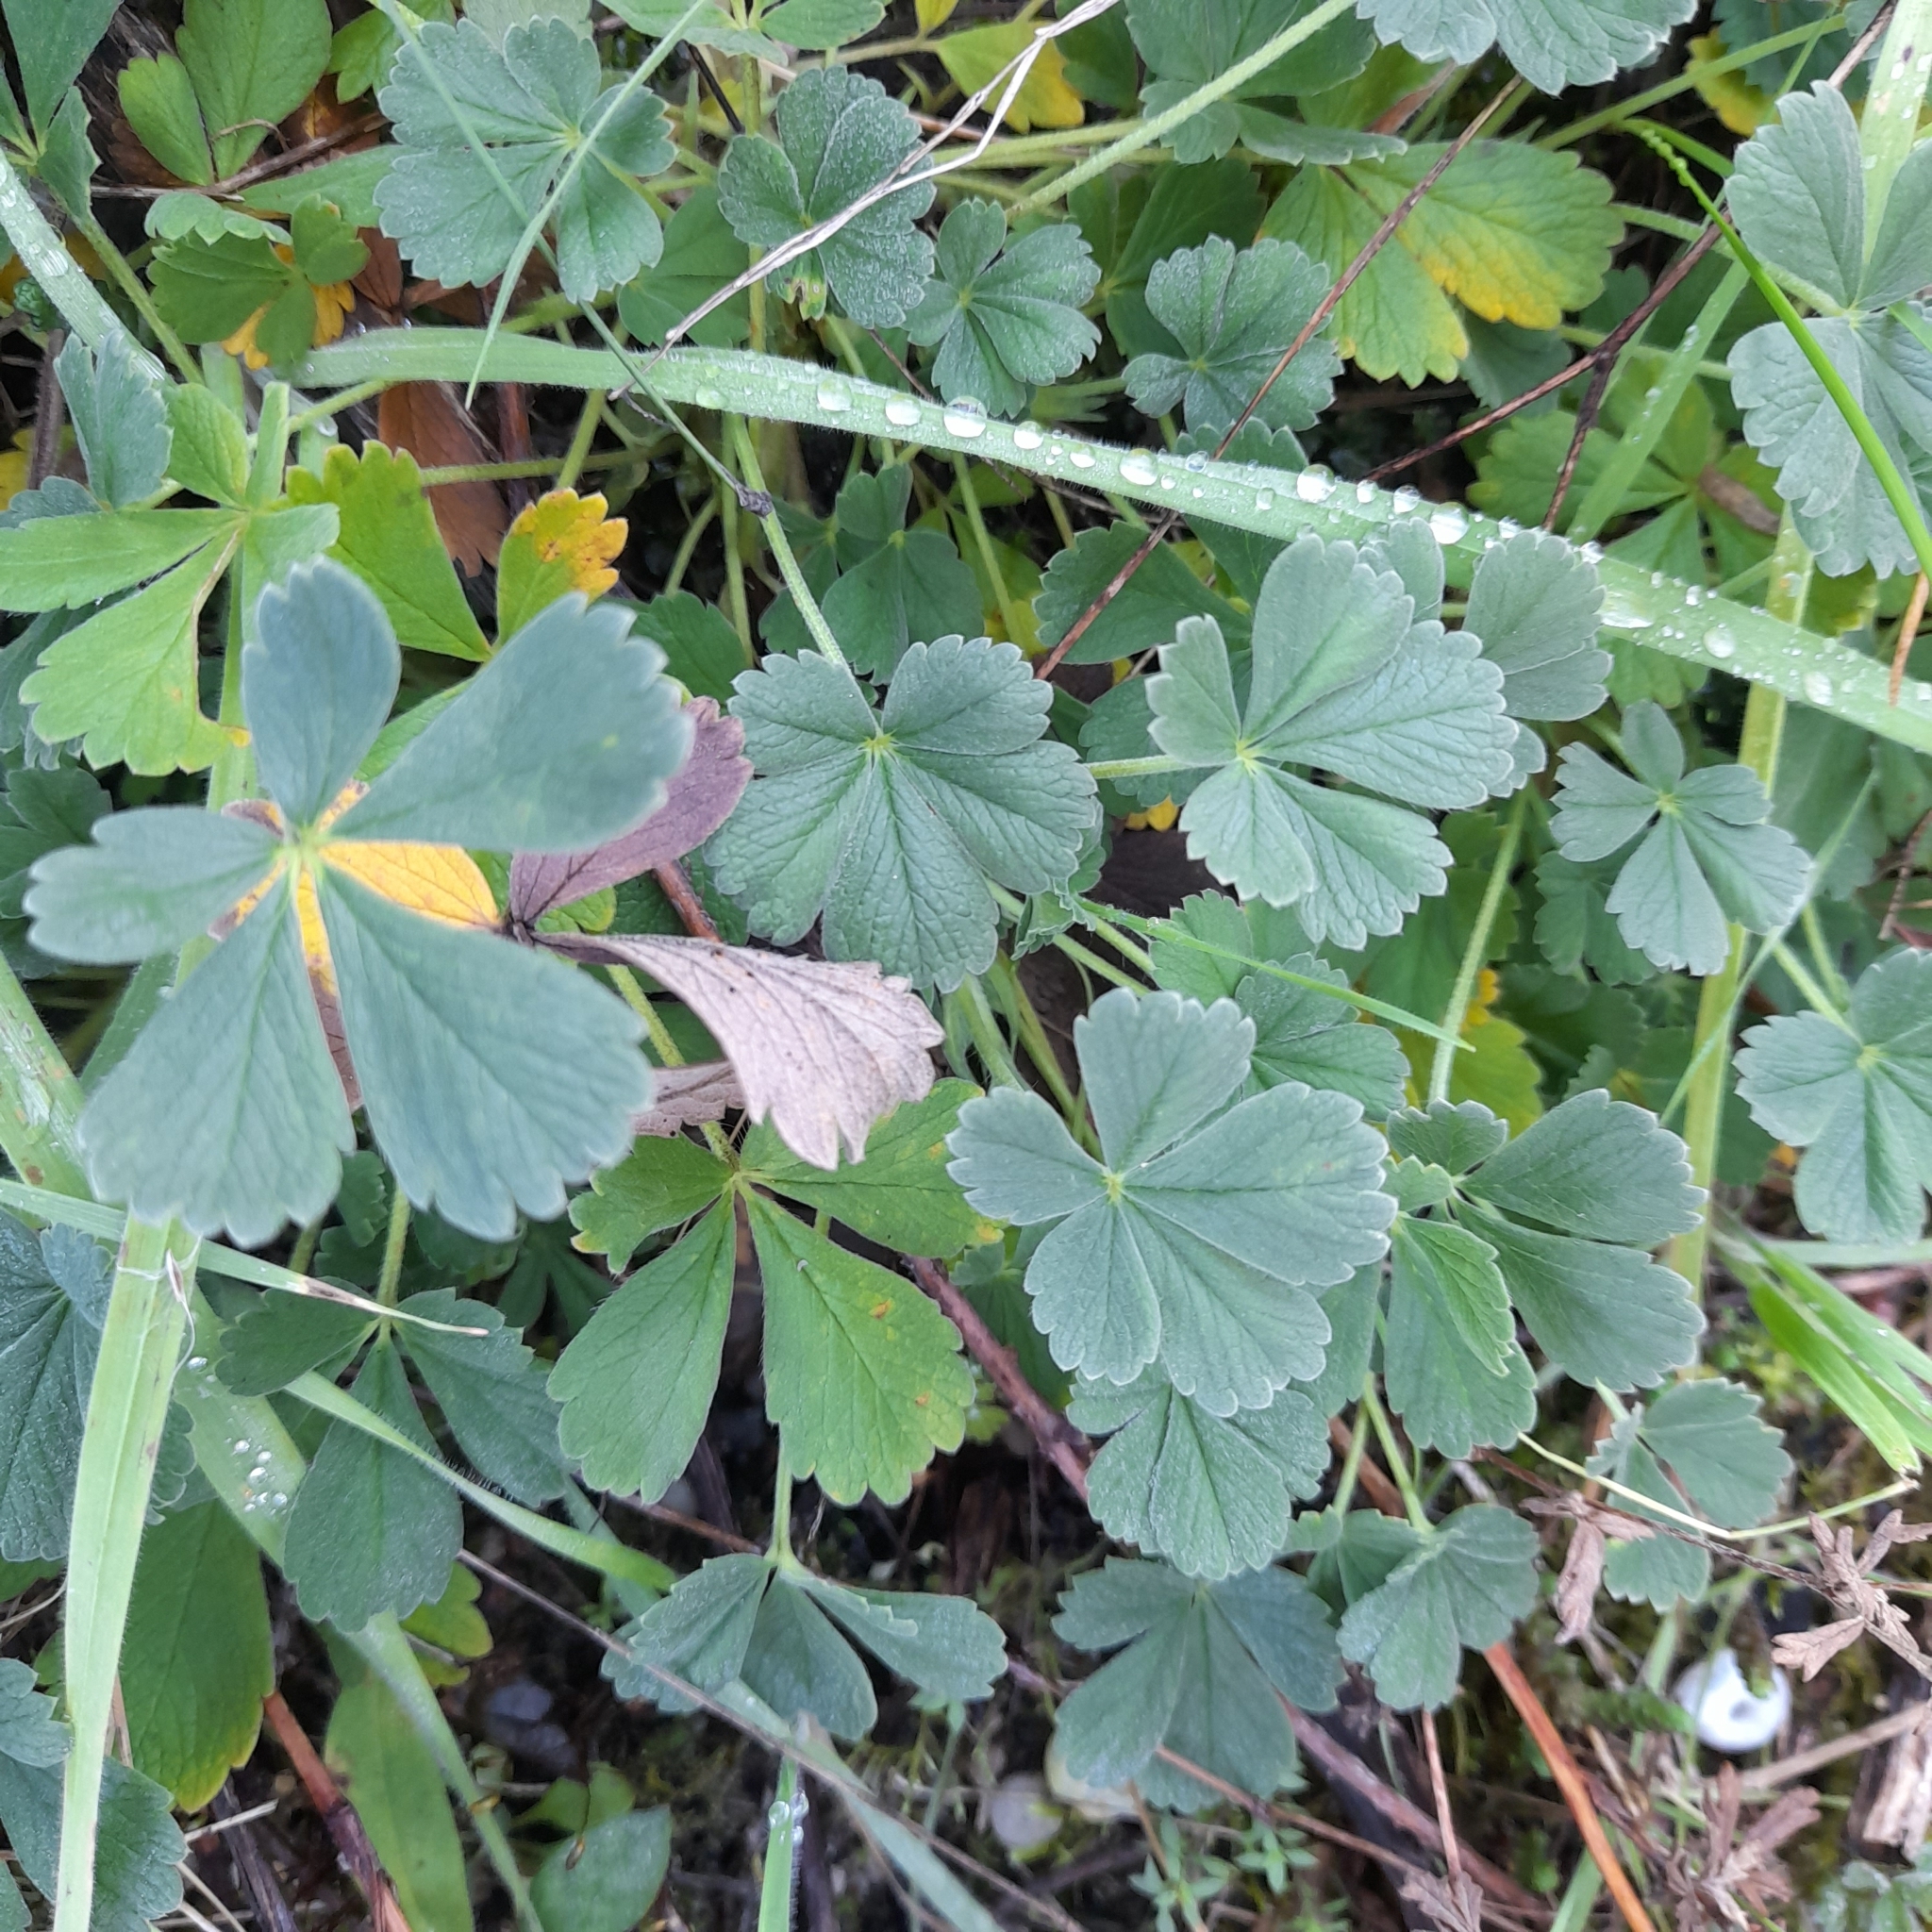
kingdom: Plantae
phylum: Tracheophyta
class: Magnoliopsida
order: Rosales
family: Rosaceae
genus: Potentilla
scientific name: Potentilla incana
